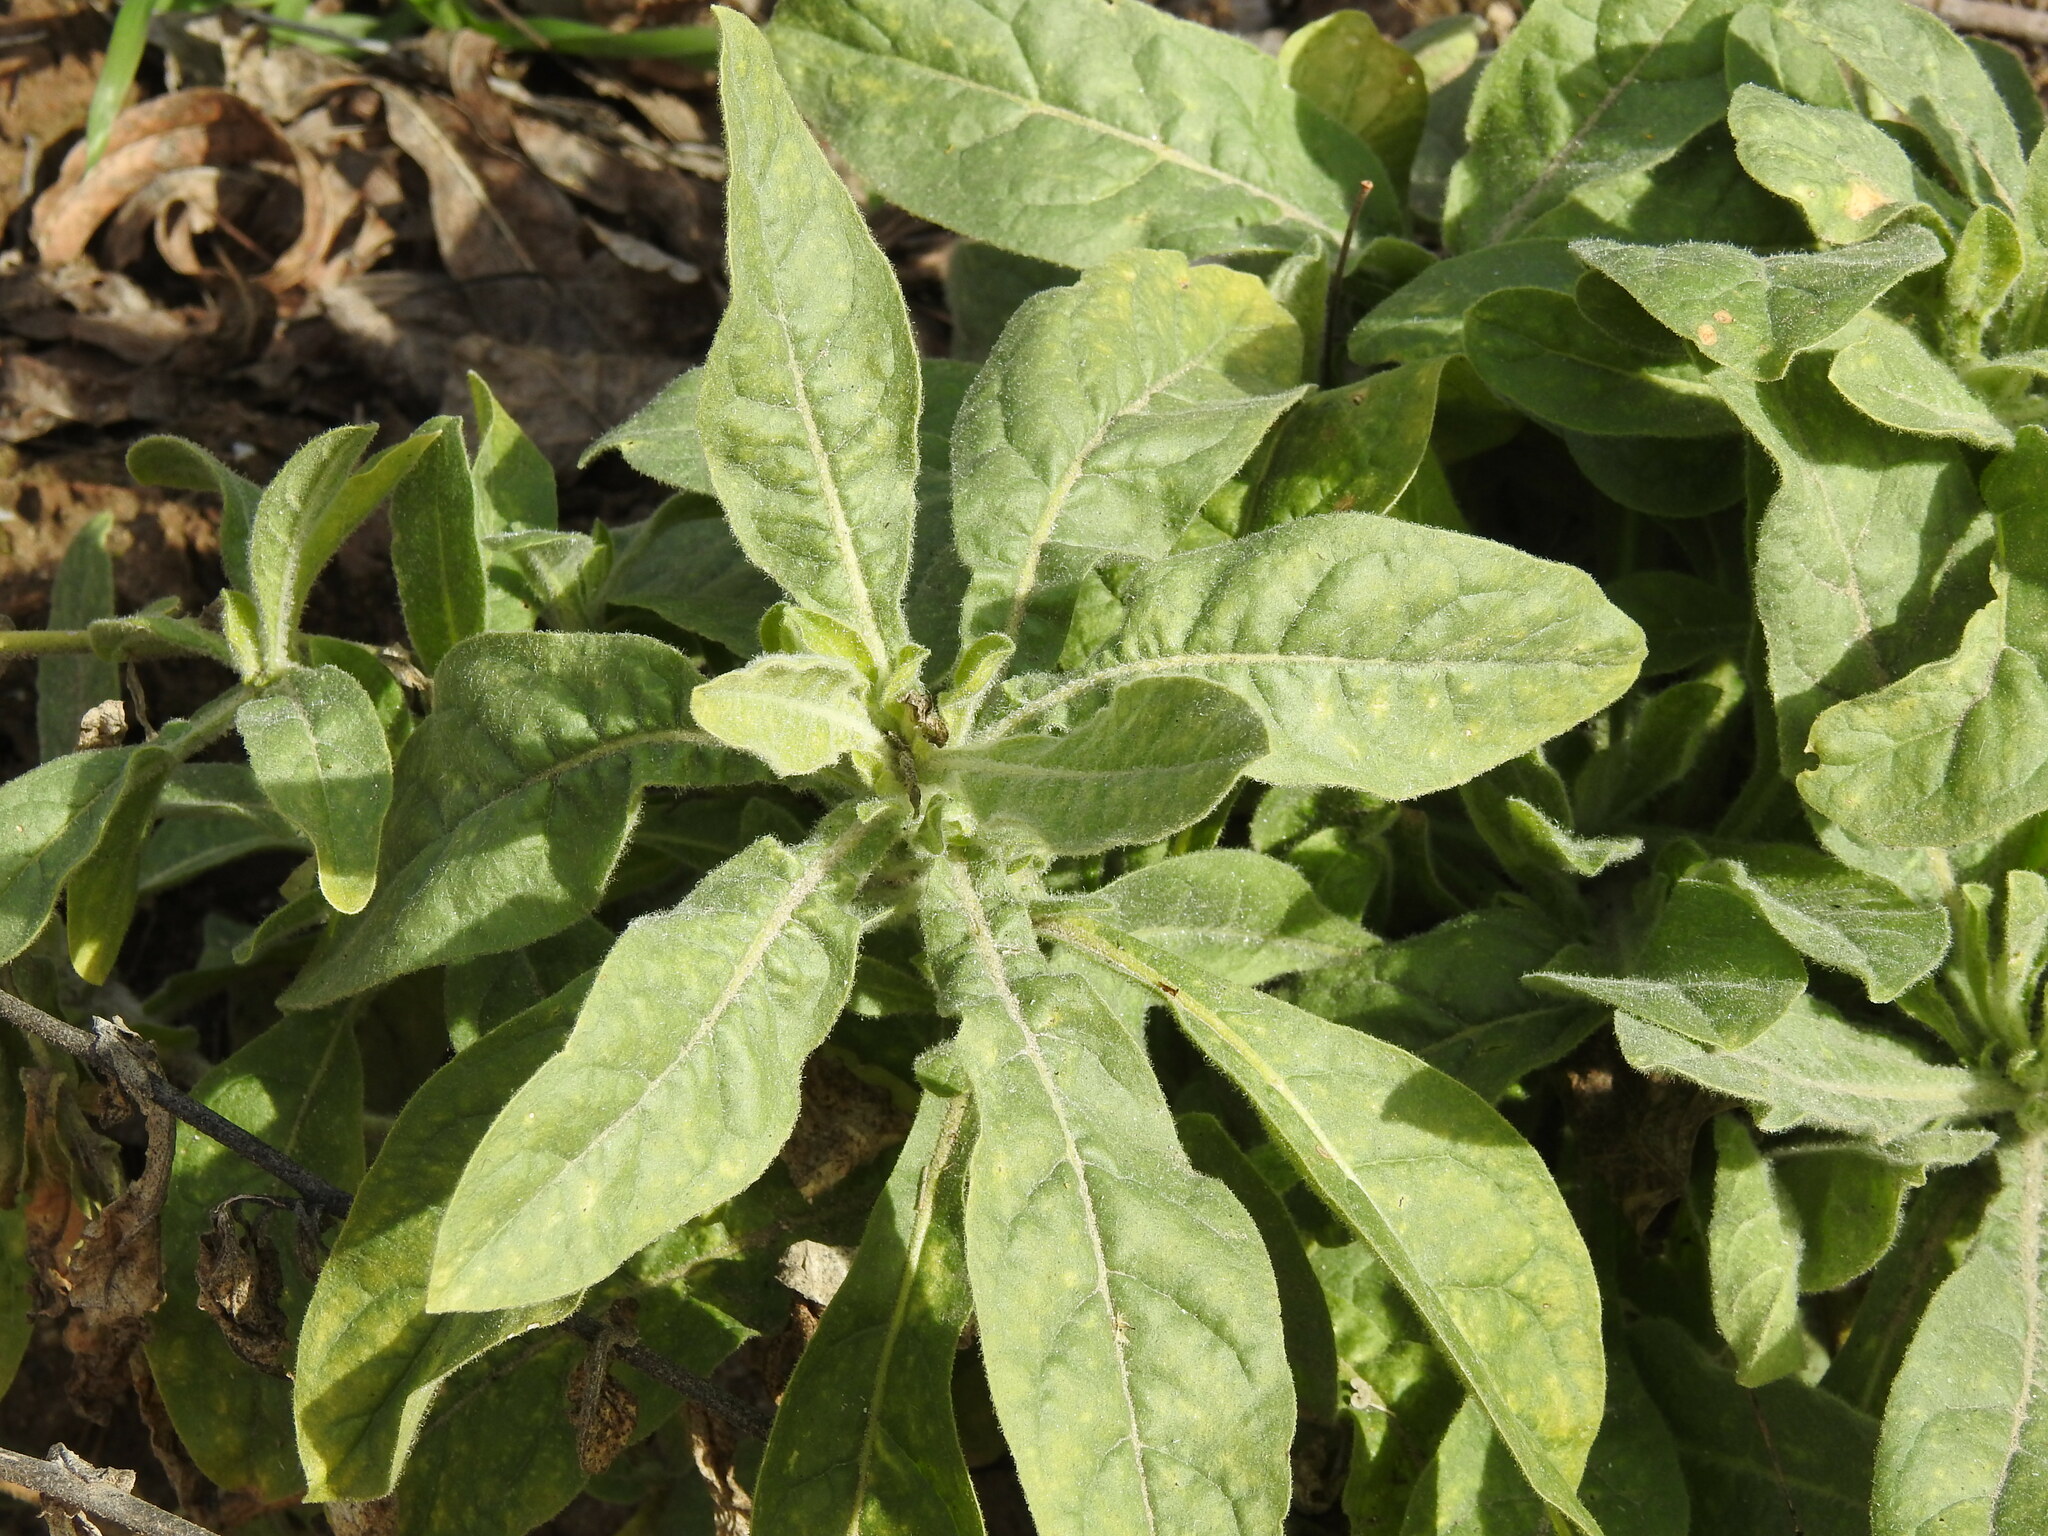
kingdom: Plantae
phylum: Tracheophyta
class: Magnoliopsida
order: Solanales
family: Solanaceae
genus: Nicotiana
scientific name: Nicotiana obtusifolia
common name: Desert tobacco
